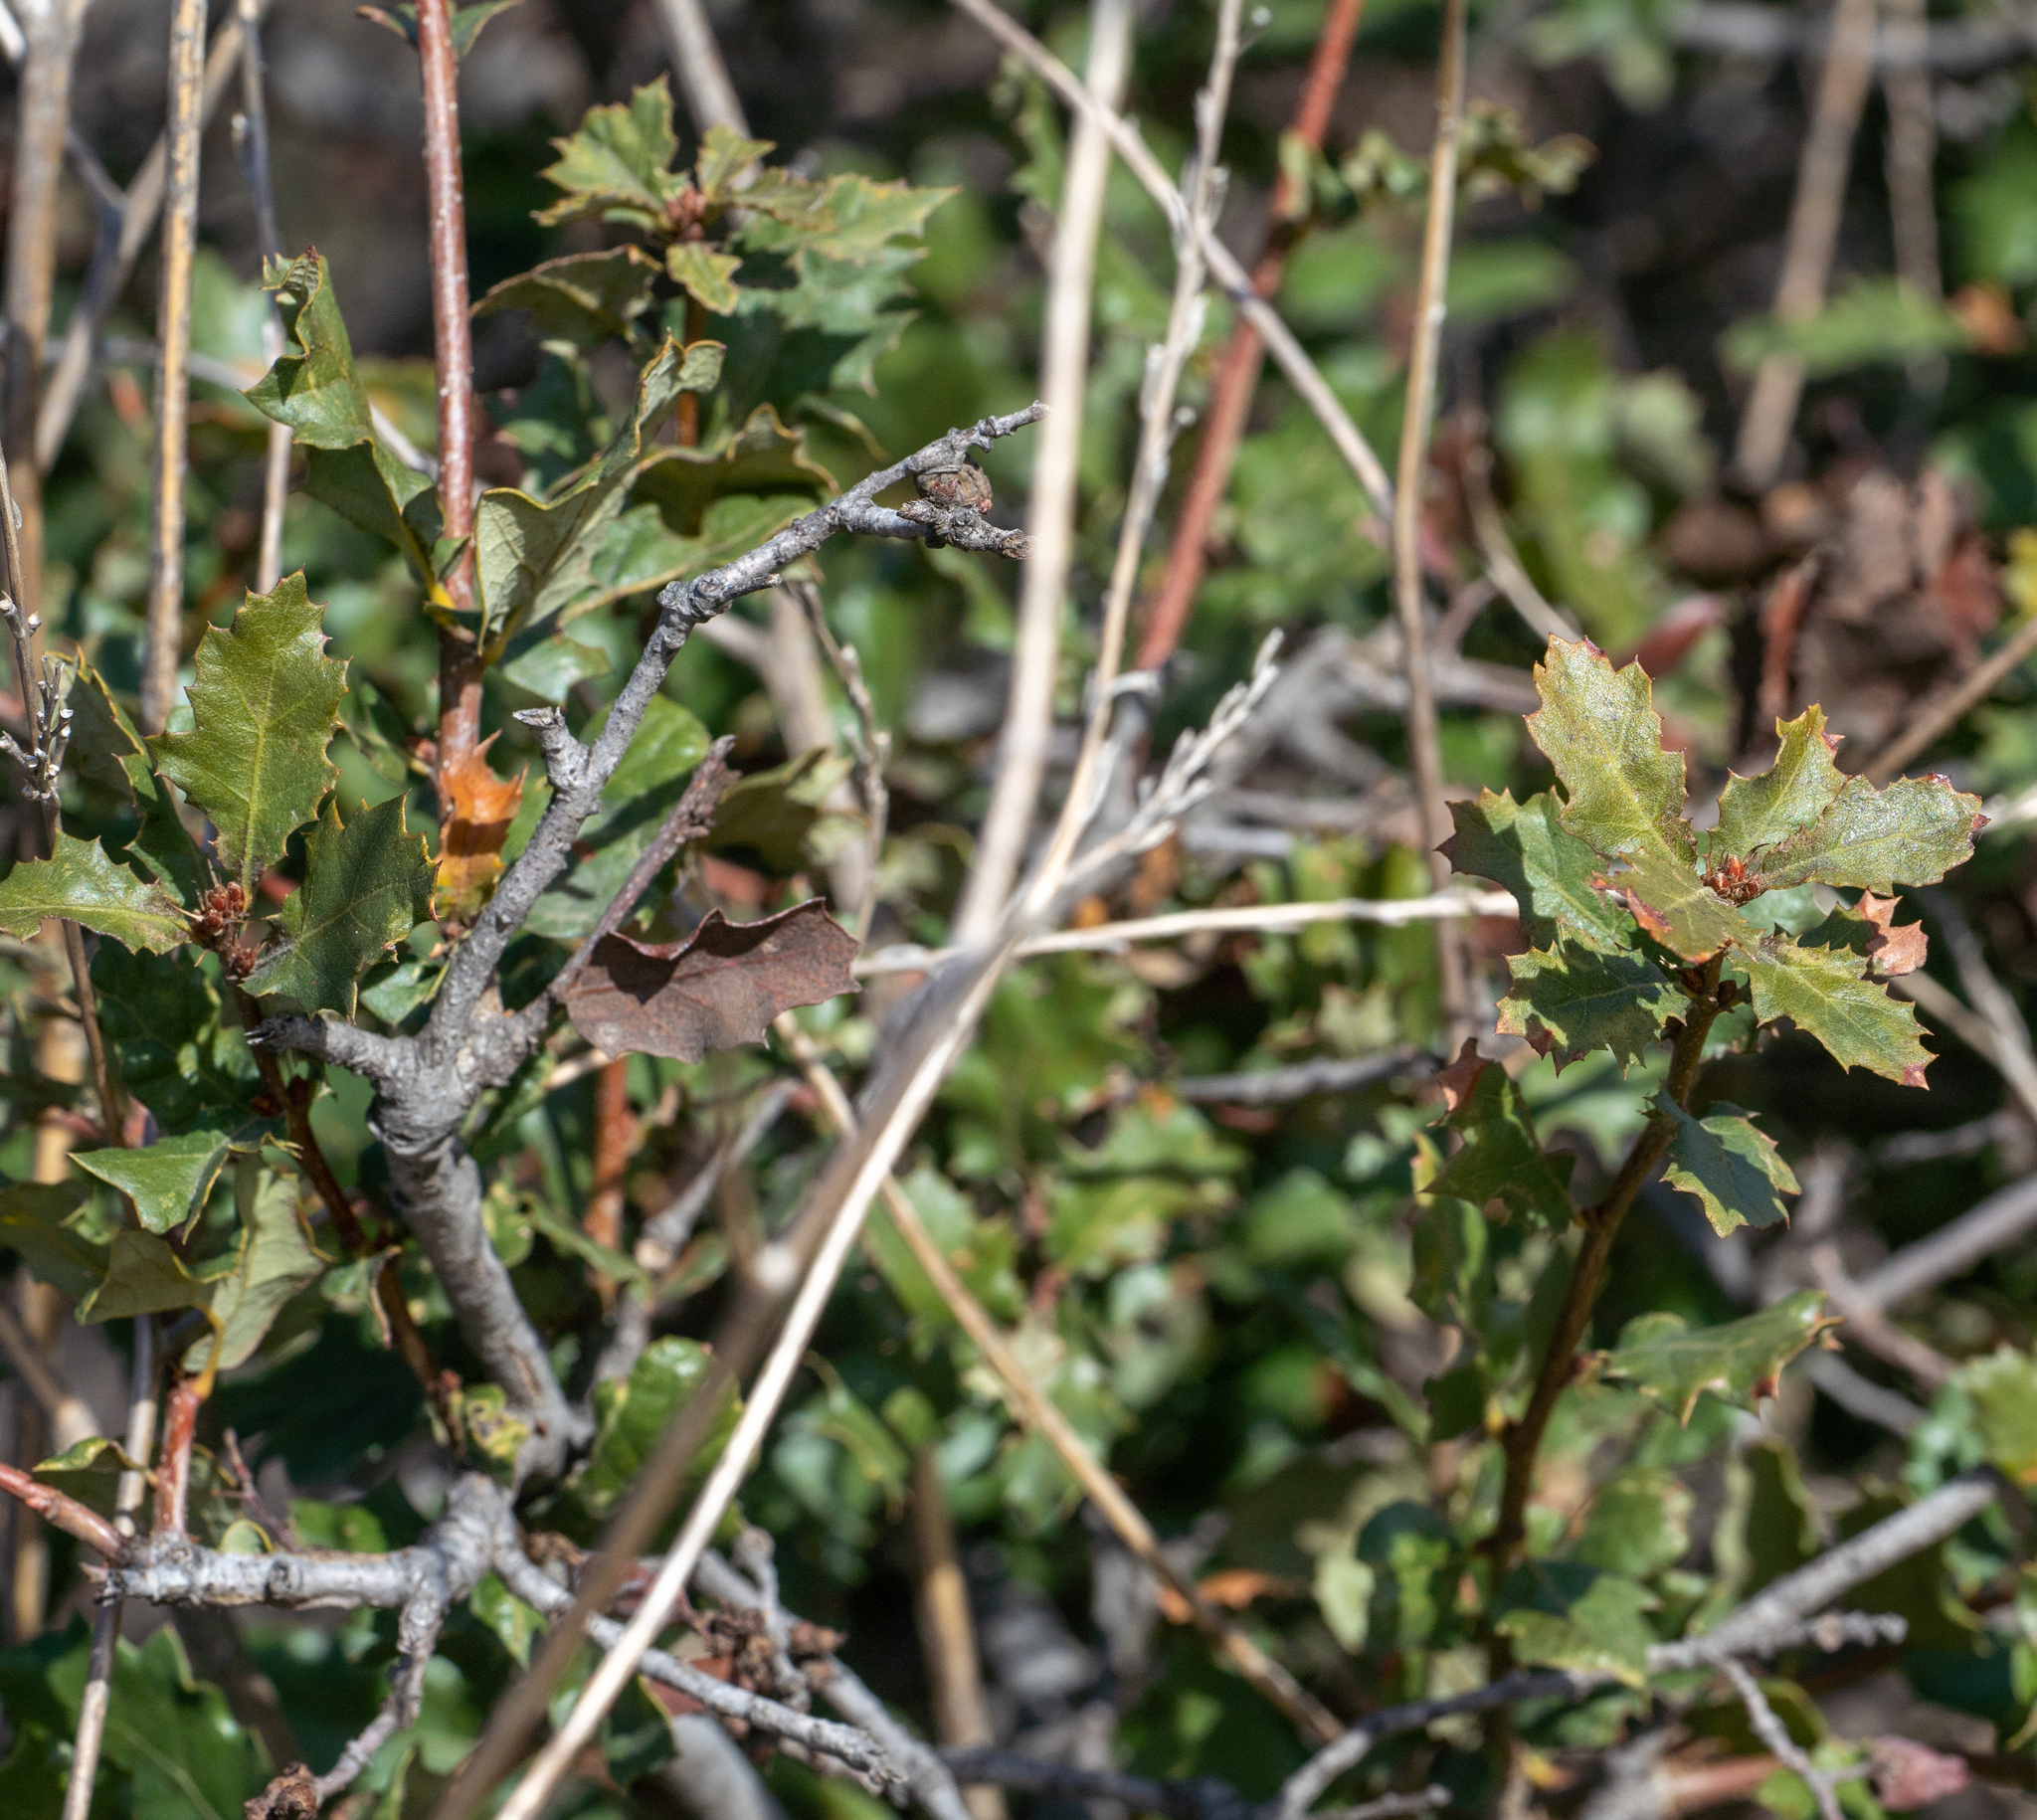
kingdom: Plantae
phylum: Tracheophyta
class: Magnoliopsida
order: Fagales
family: Fagaceae
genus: Quercus
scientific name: Quercus berberidifolia
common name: California scrub oak
